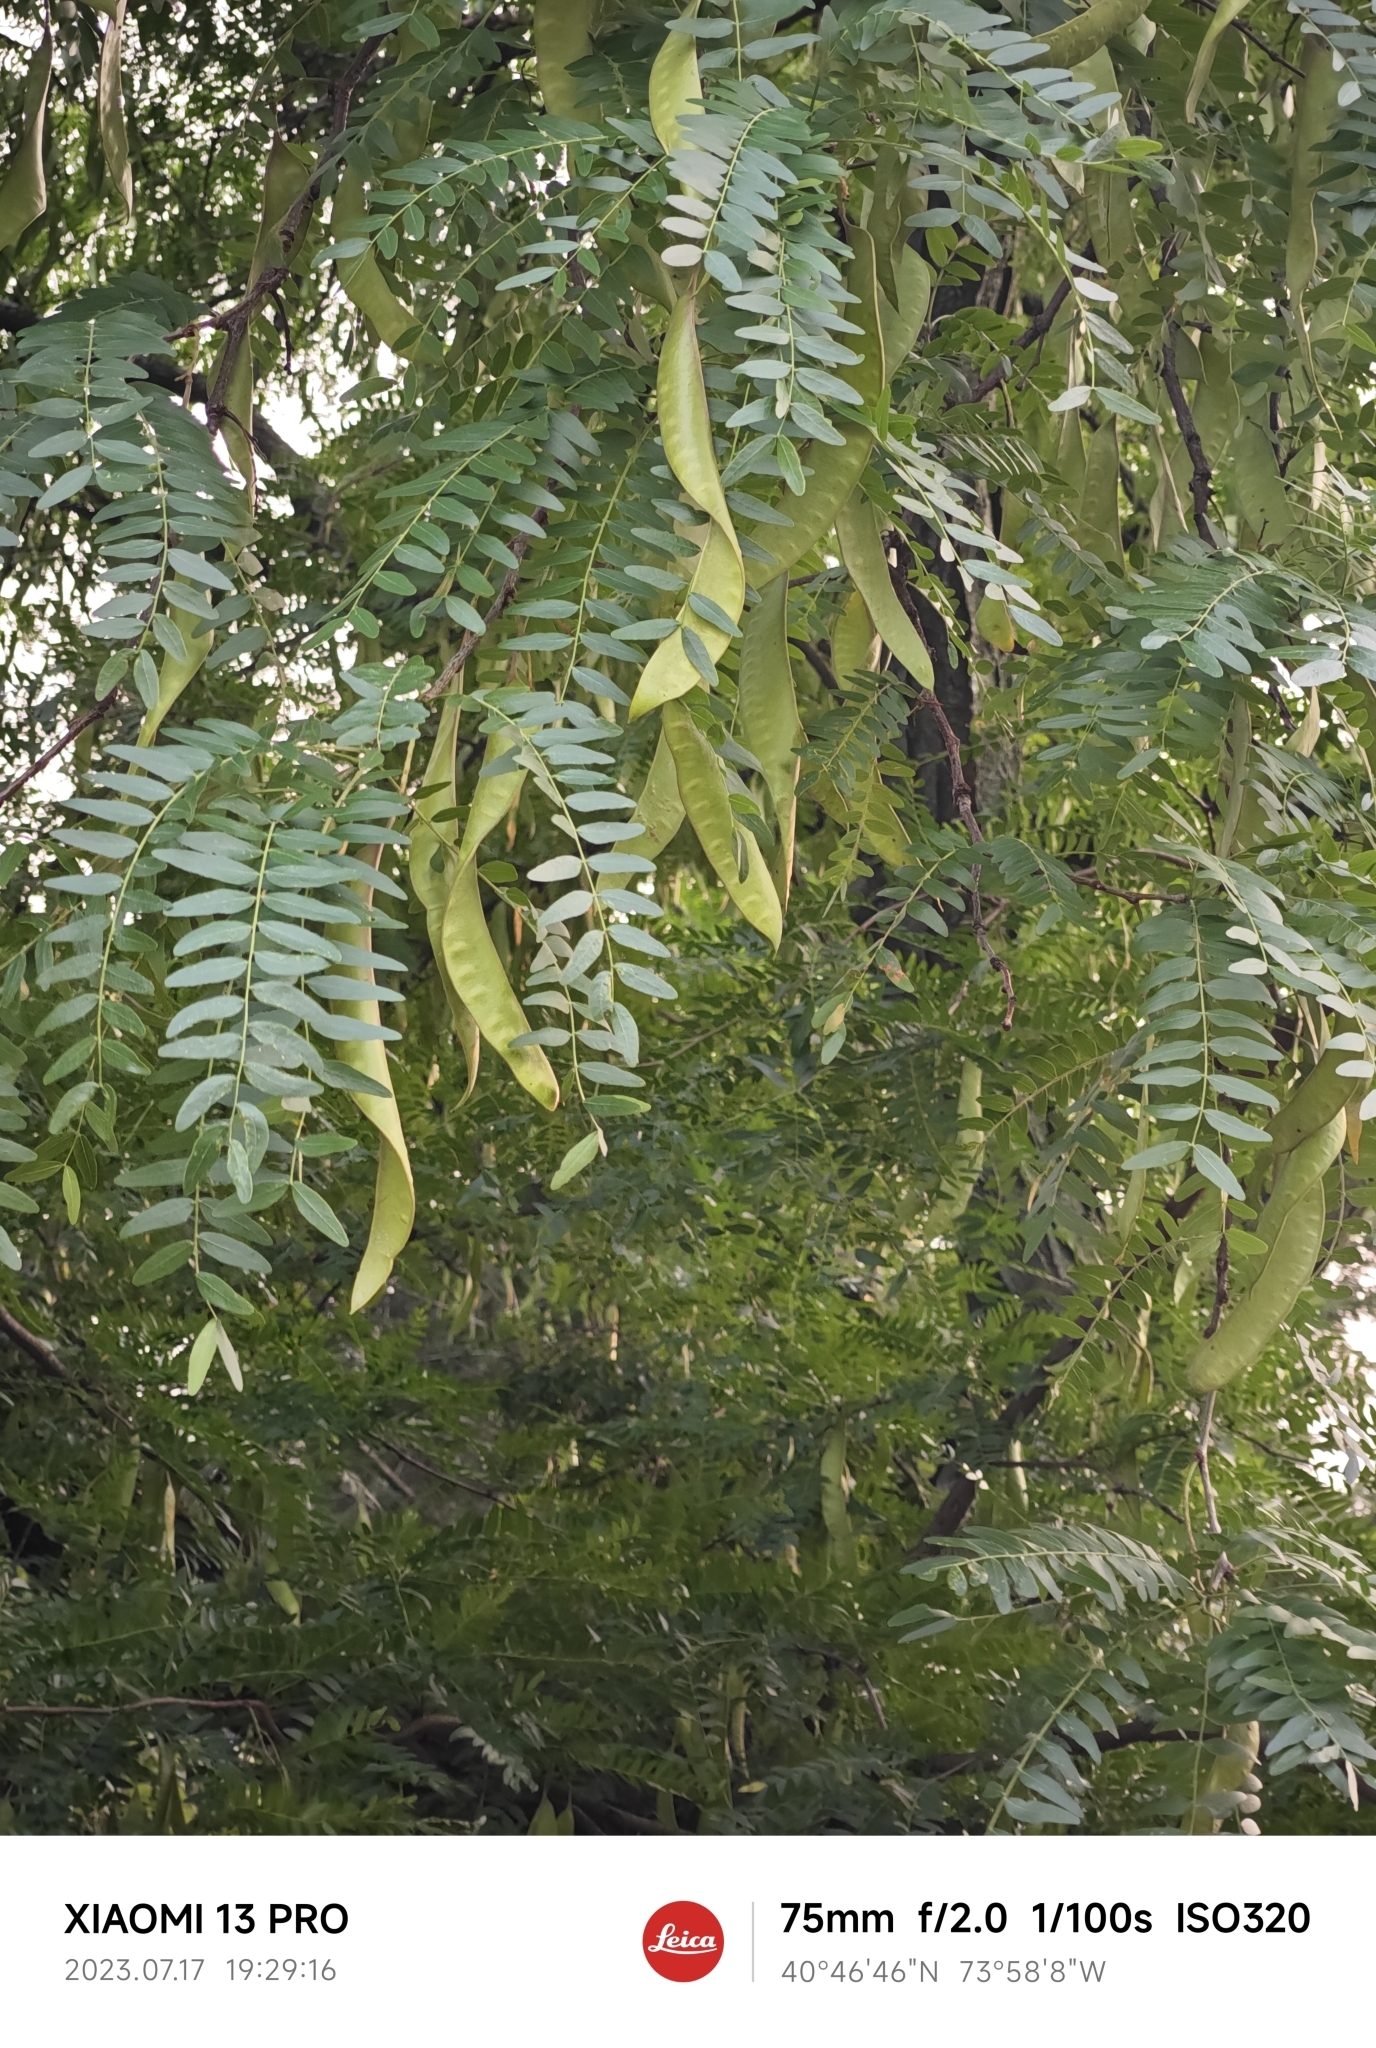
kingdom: Plantae
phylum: Tracheophyta
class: Magnoliopsida
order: Fabales
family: Fabaceae
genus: Gleditsia
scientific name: Gleditsia triacanthos
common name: Common honeylocust
